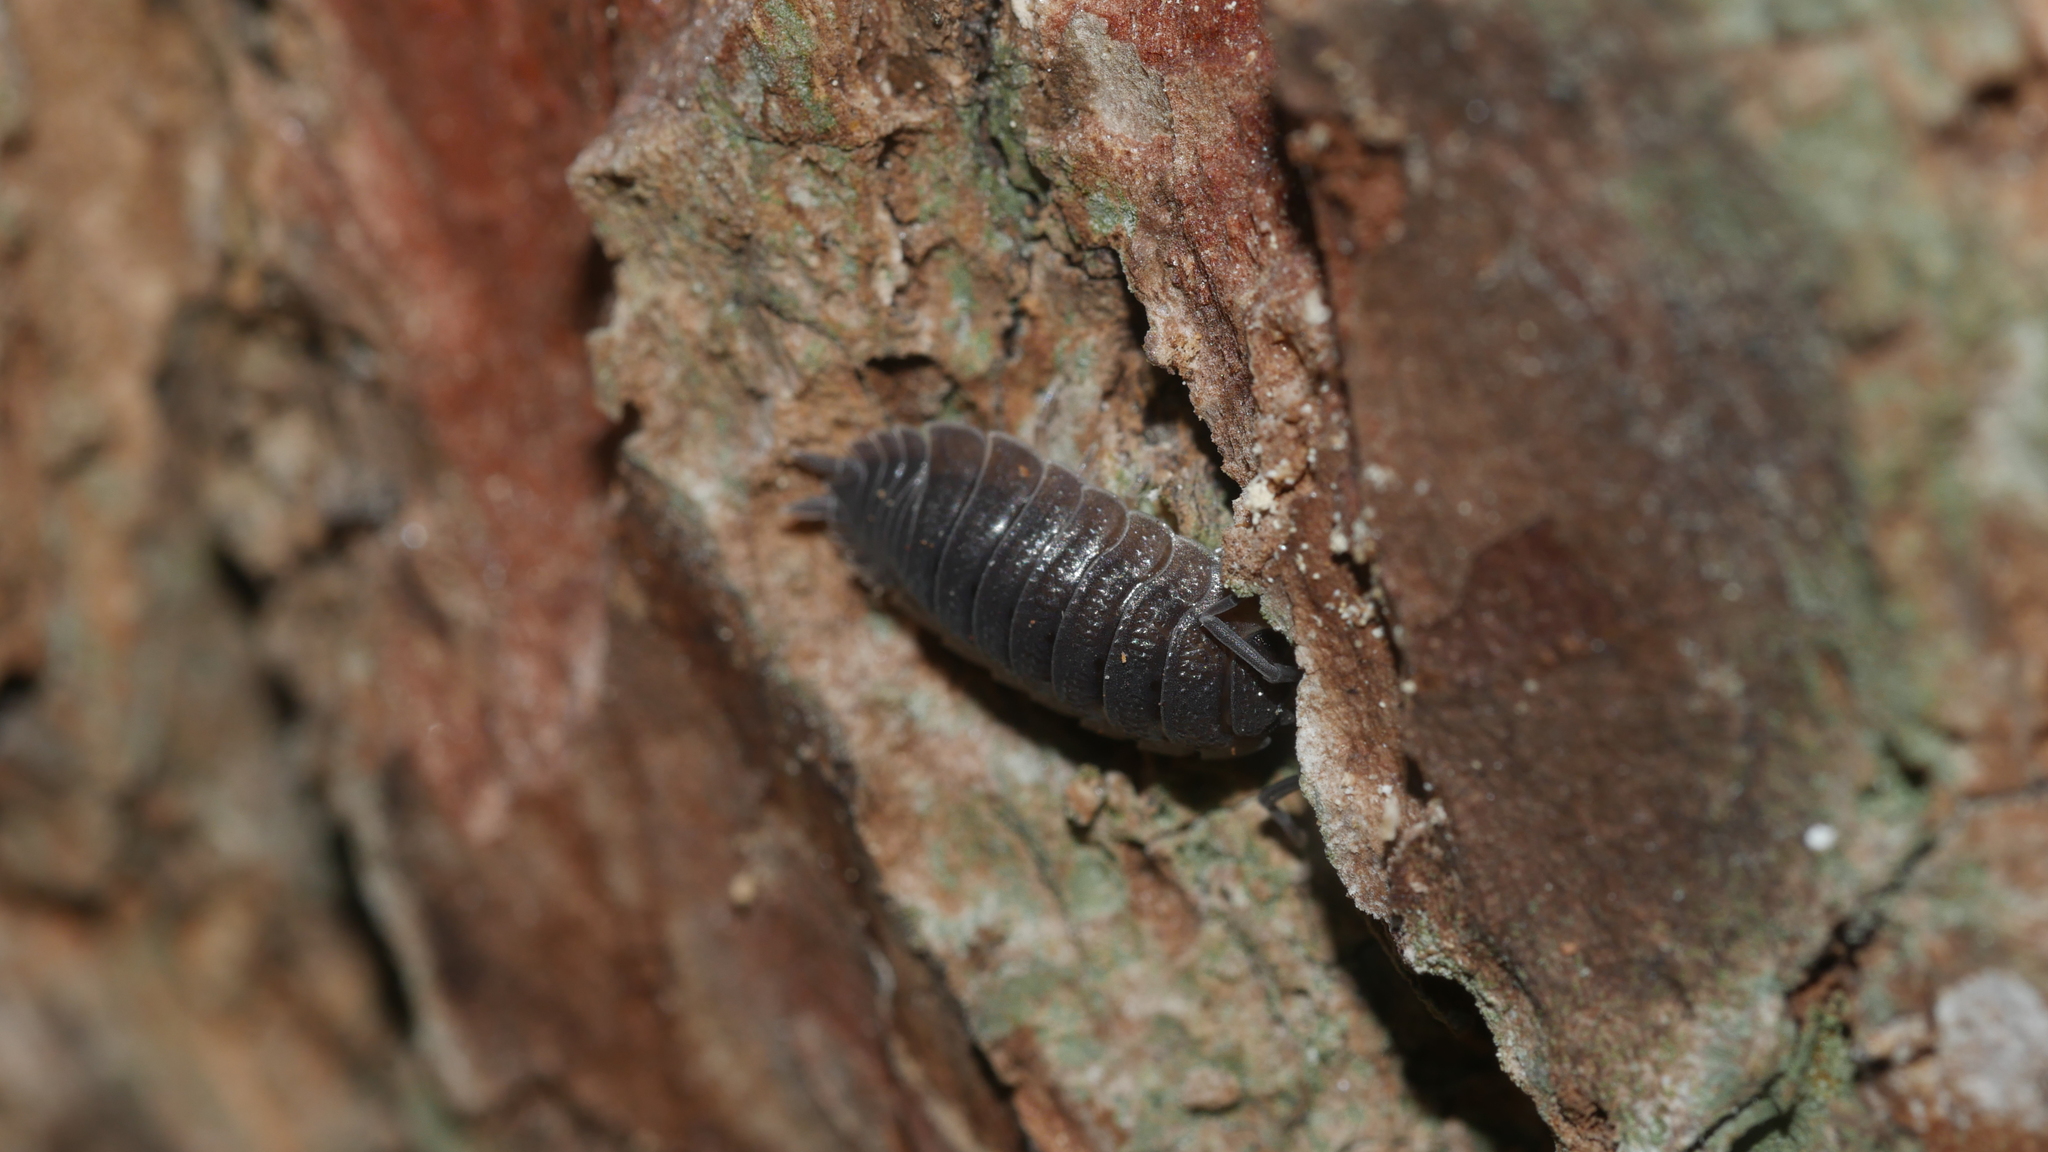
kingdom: Animalia
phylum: Arthropoda
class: Malacostraca
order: Isopoda
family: Porcellionidae
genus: Porcellio
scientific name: Porcellio scaber
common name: Common rough woodlouse
